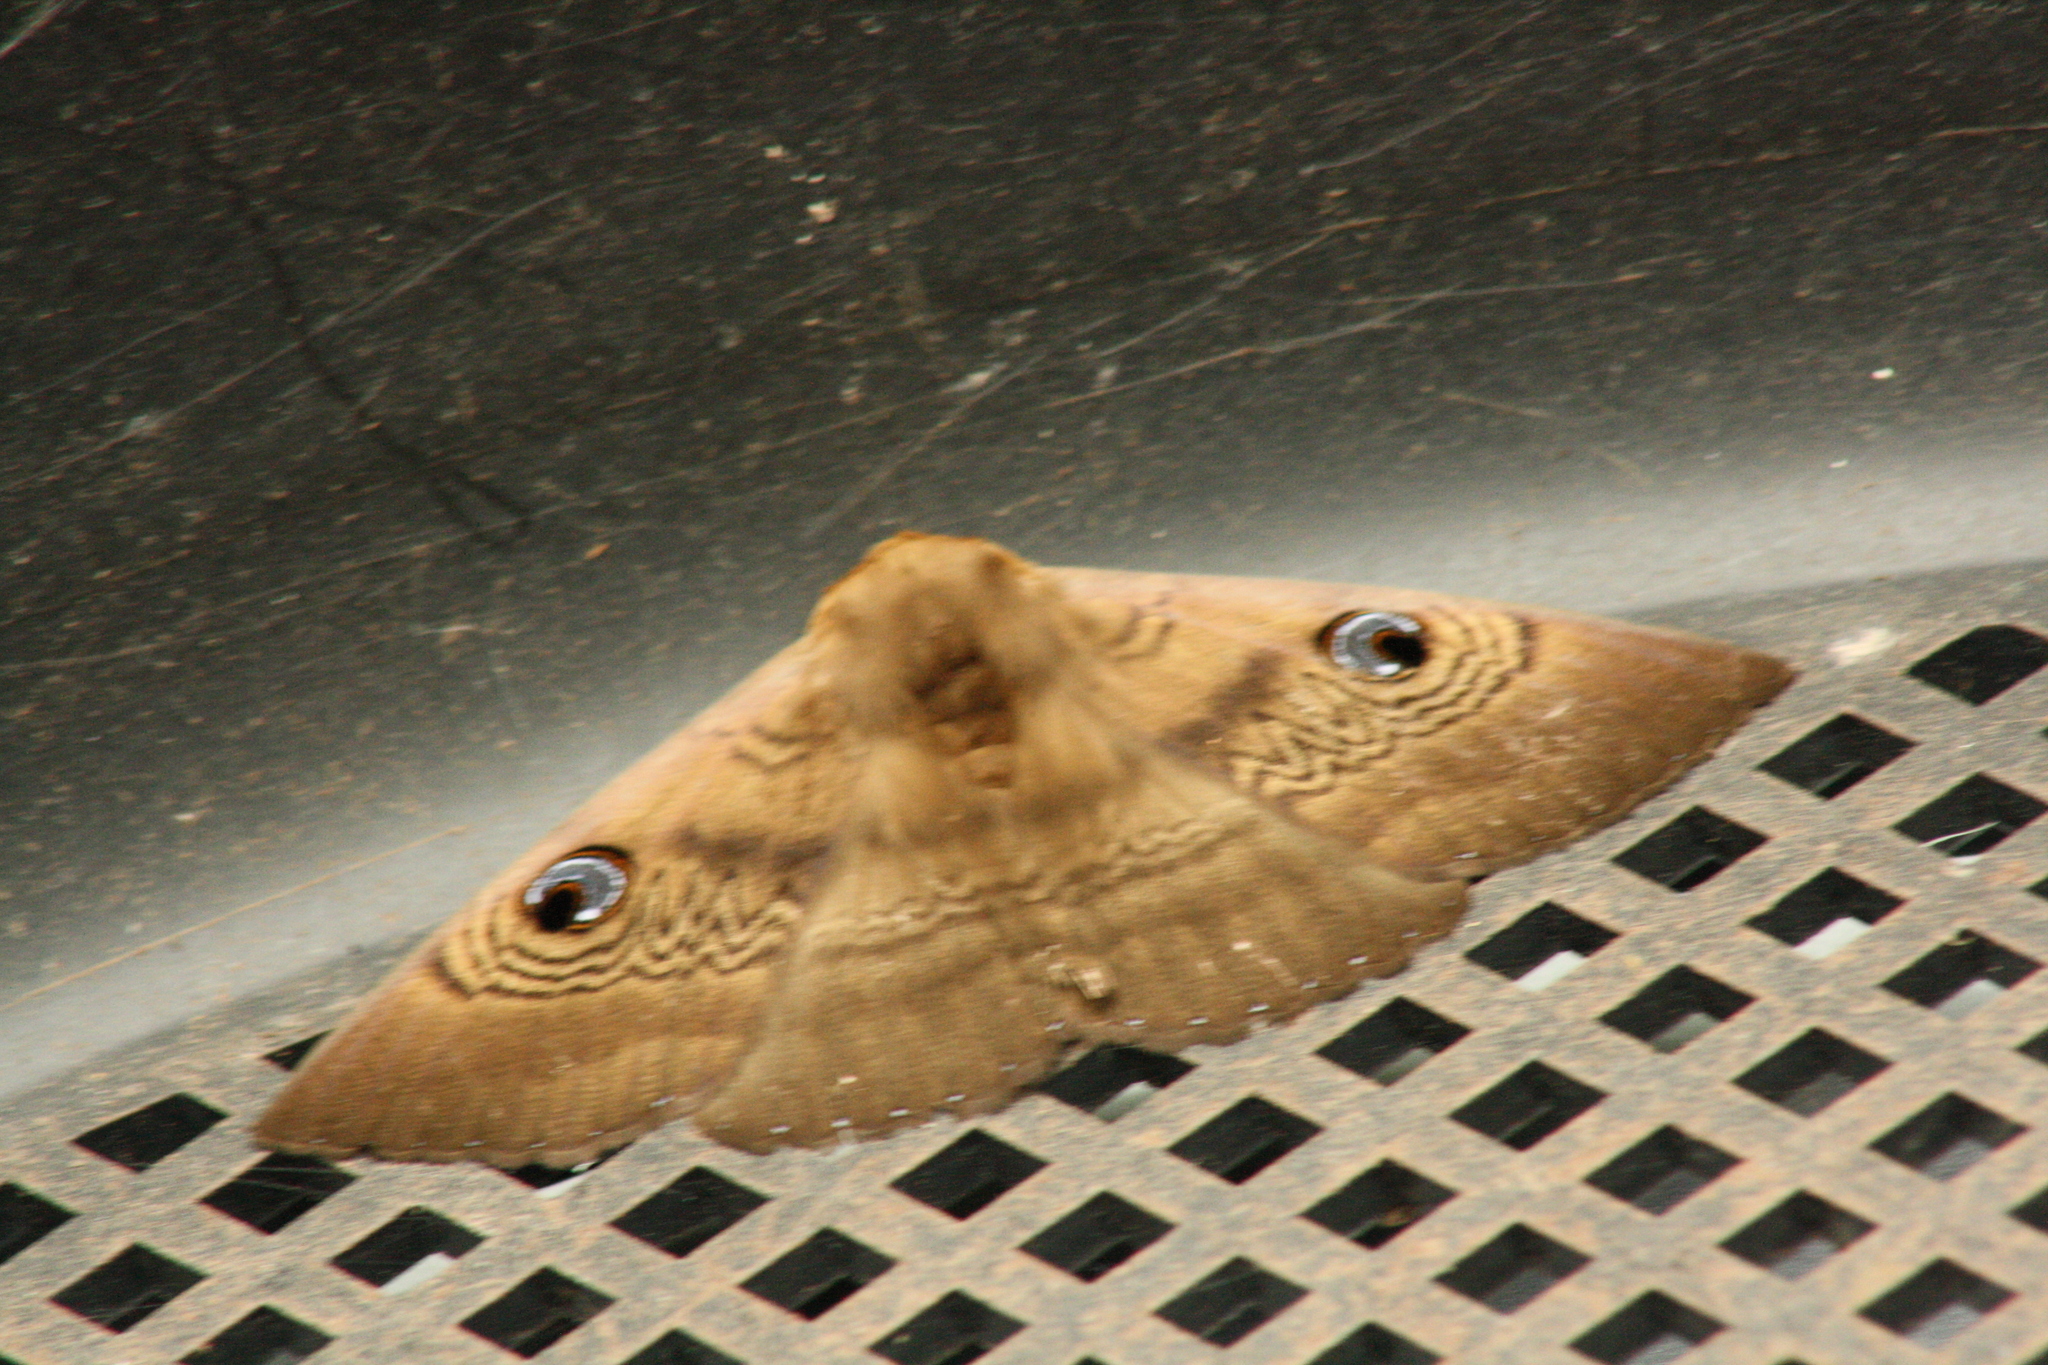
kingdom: Animalia
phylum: Arthropoda
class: Insecta
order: Lepidoptera
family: Erebidae
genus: Dasypodia
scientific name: Dasypodia selenophora
